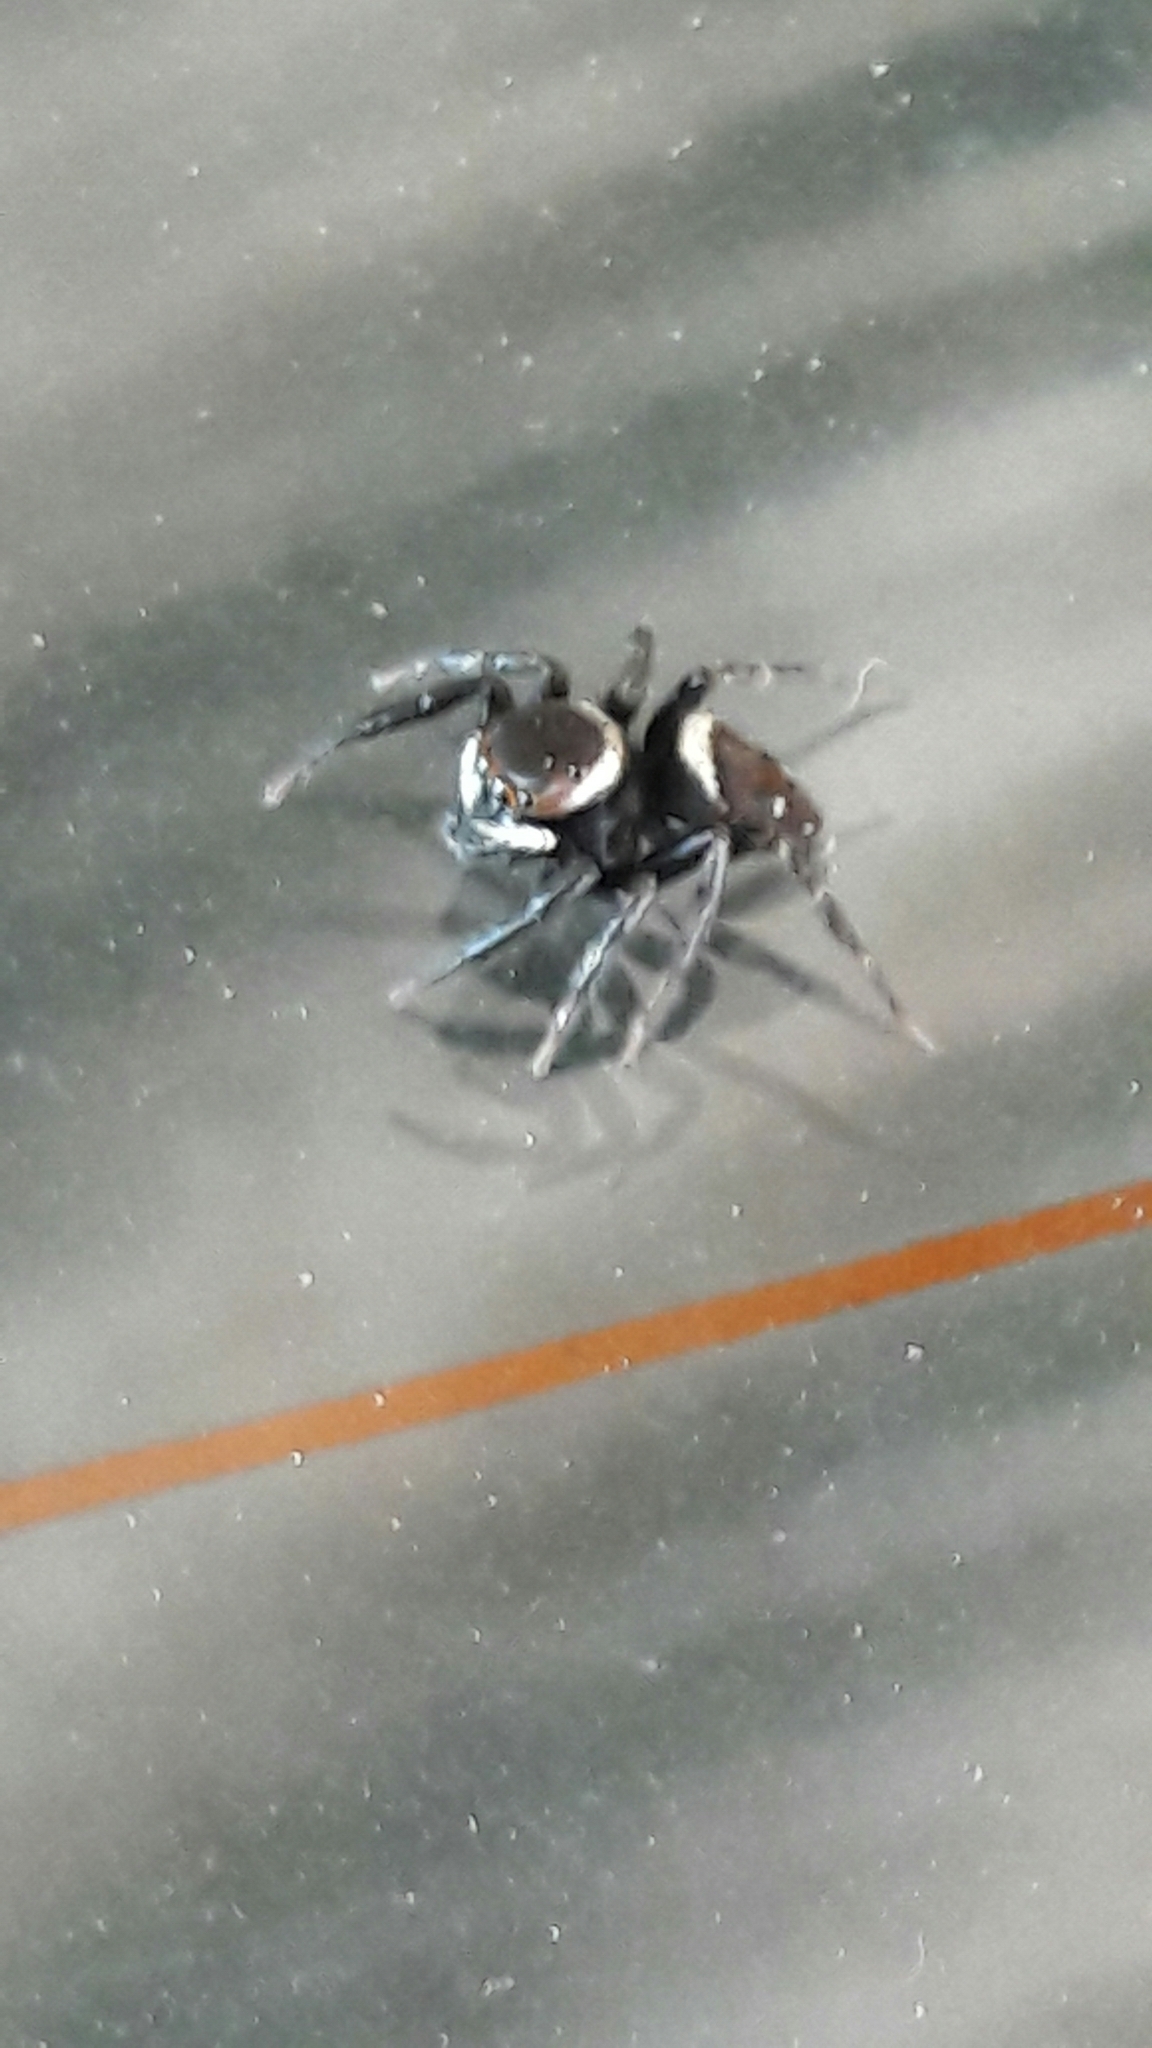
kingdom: Animalia
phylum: Arthropoda
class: Arachnida
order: Araneae
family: Salticidae
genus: Hasarius
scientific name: Hasarius adansoni
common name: Jumping spider
